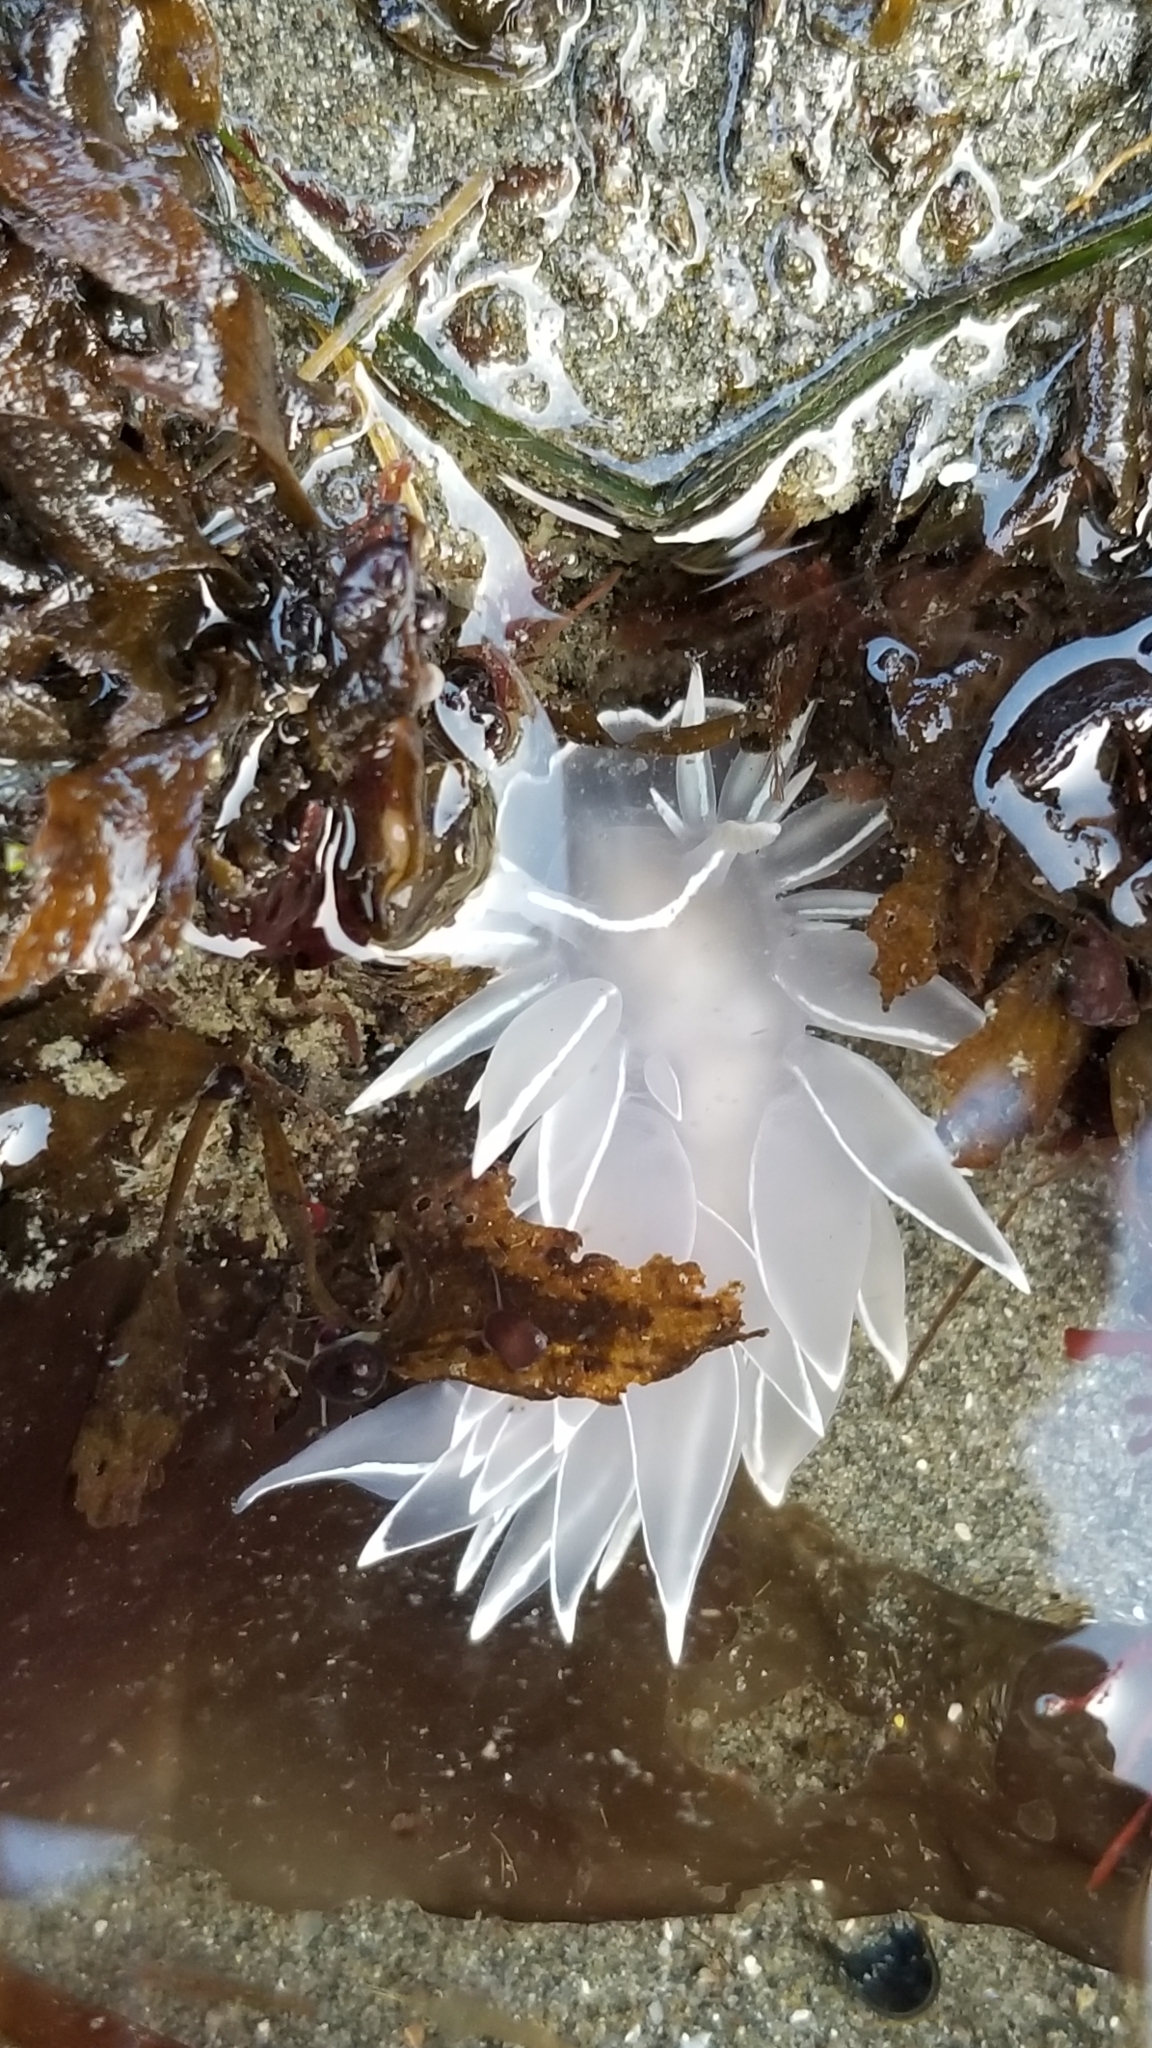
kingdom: Animalia
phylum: Mollusca
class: Gastropoda
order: Nudibranchia
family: Dironidae
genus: Dirona
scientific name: Dirona albolineata
